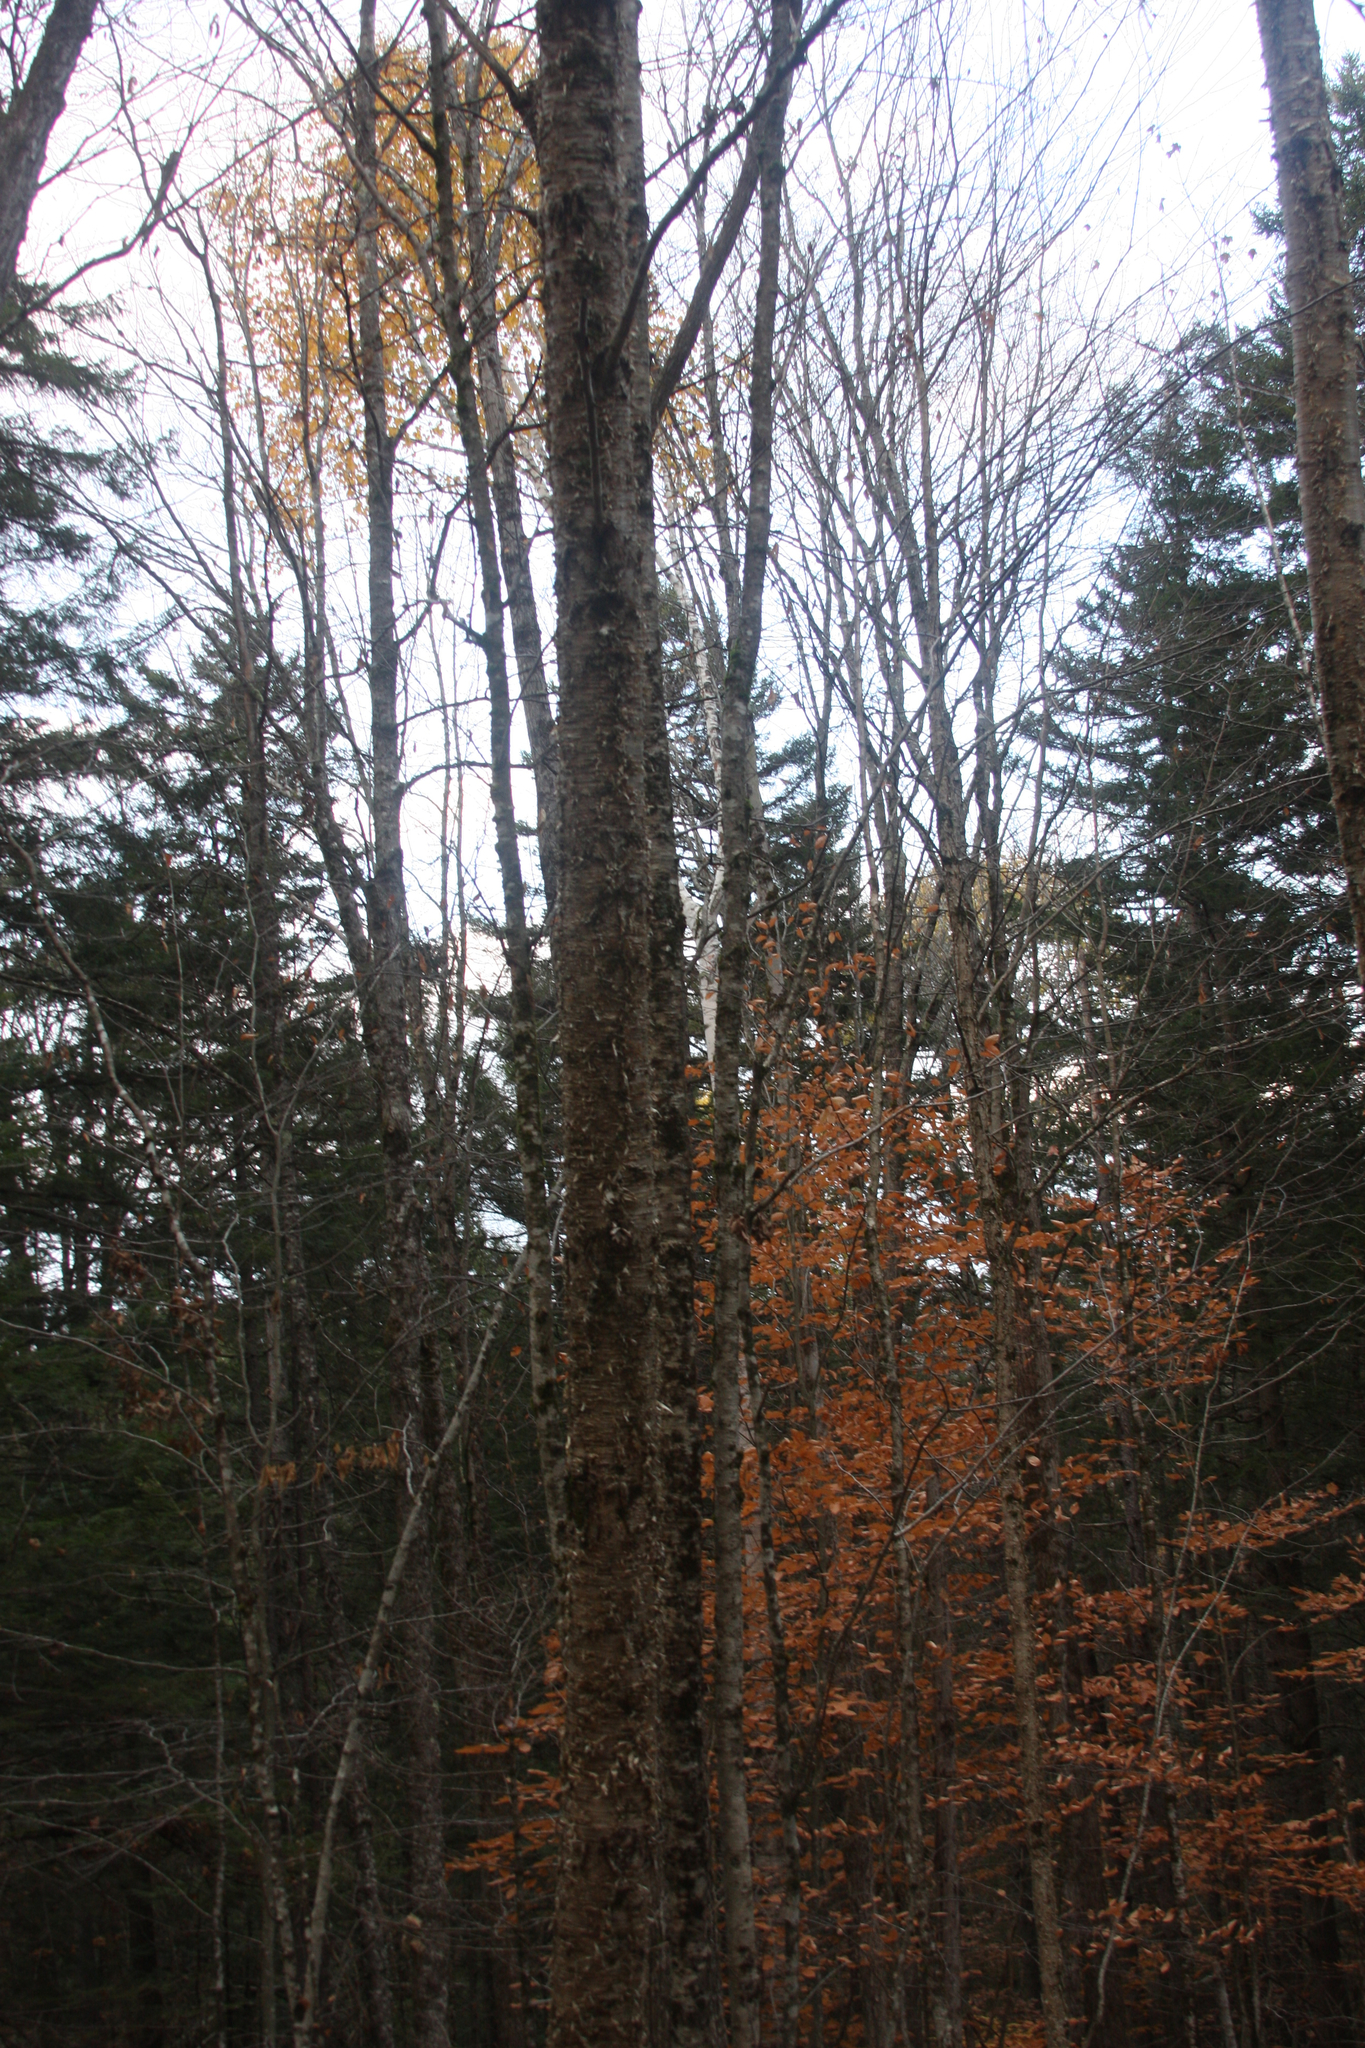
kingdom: Plantae
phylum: Tracheophyta
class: Magnoliopsida
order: Fagales
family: Betulaceae
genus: Betula
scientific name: Betula alleghaniensis
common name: Yellow birch
